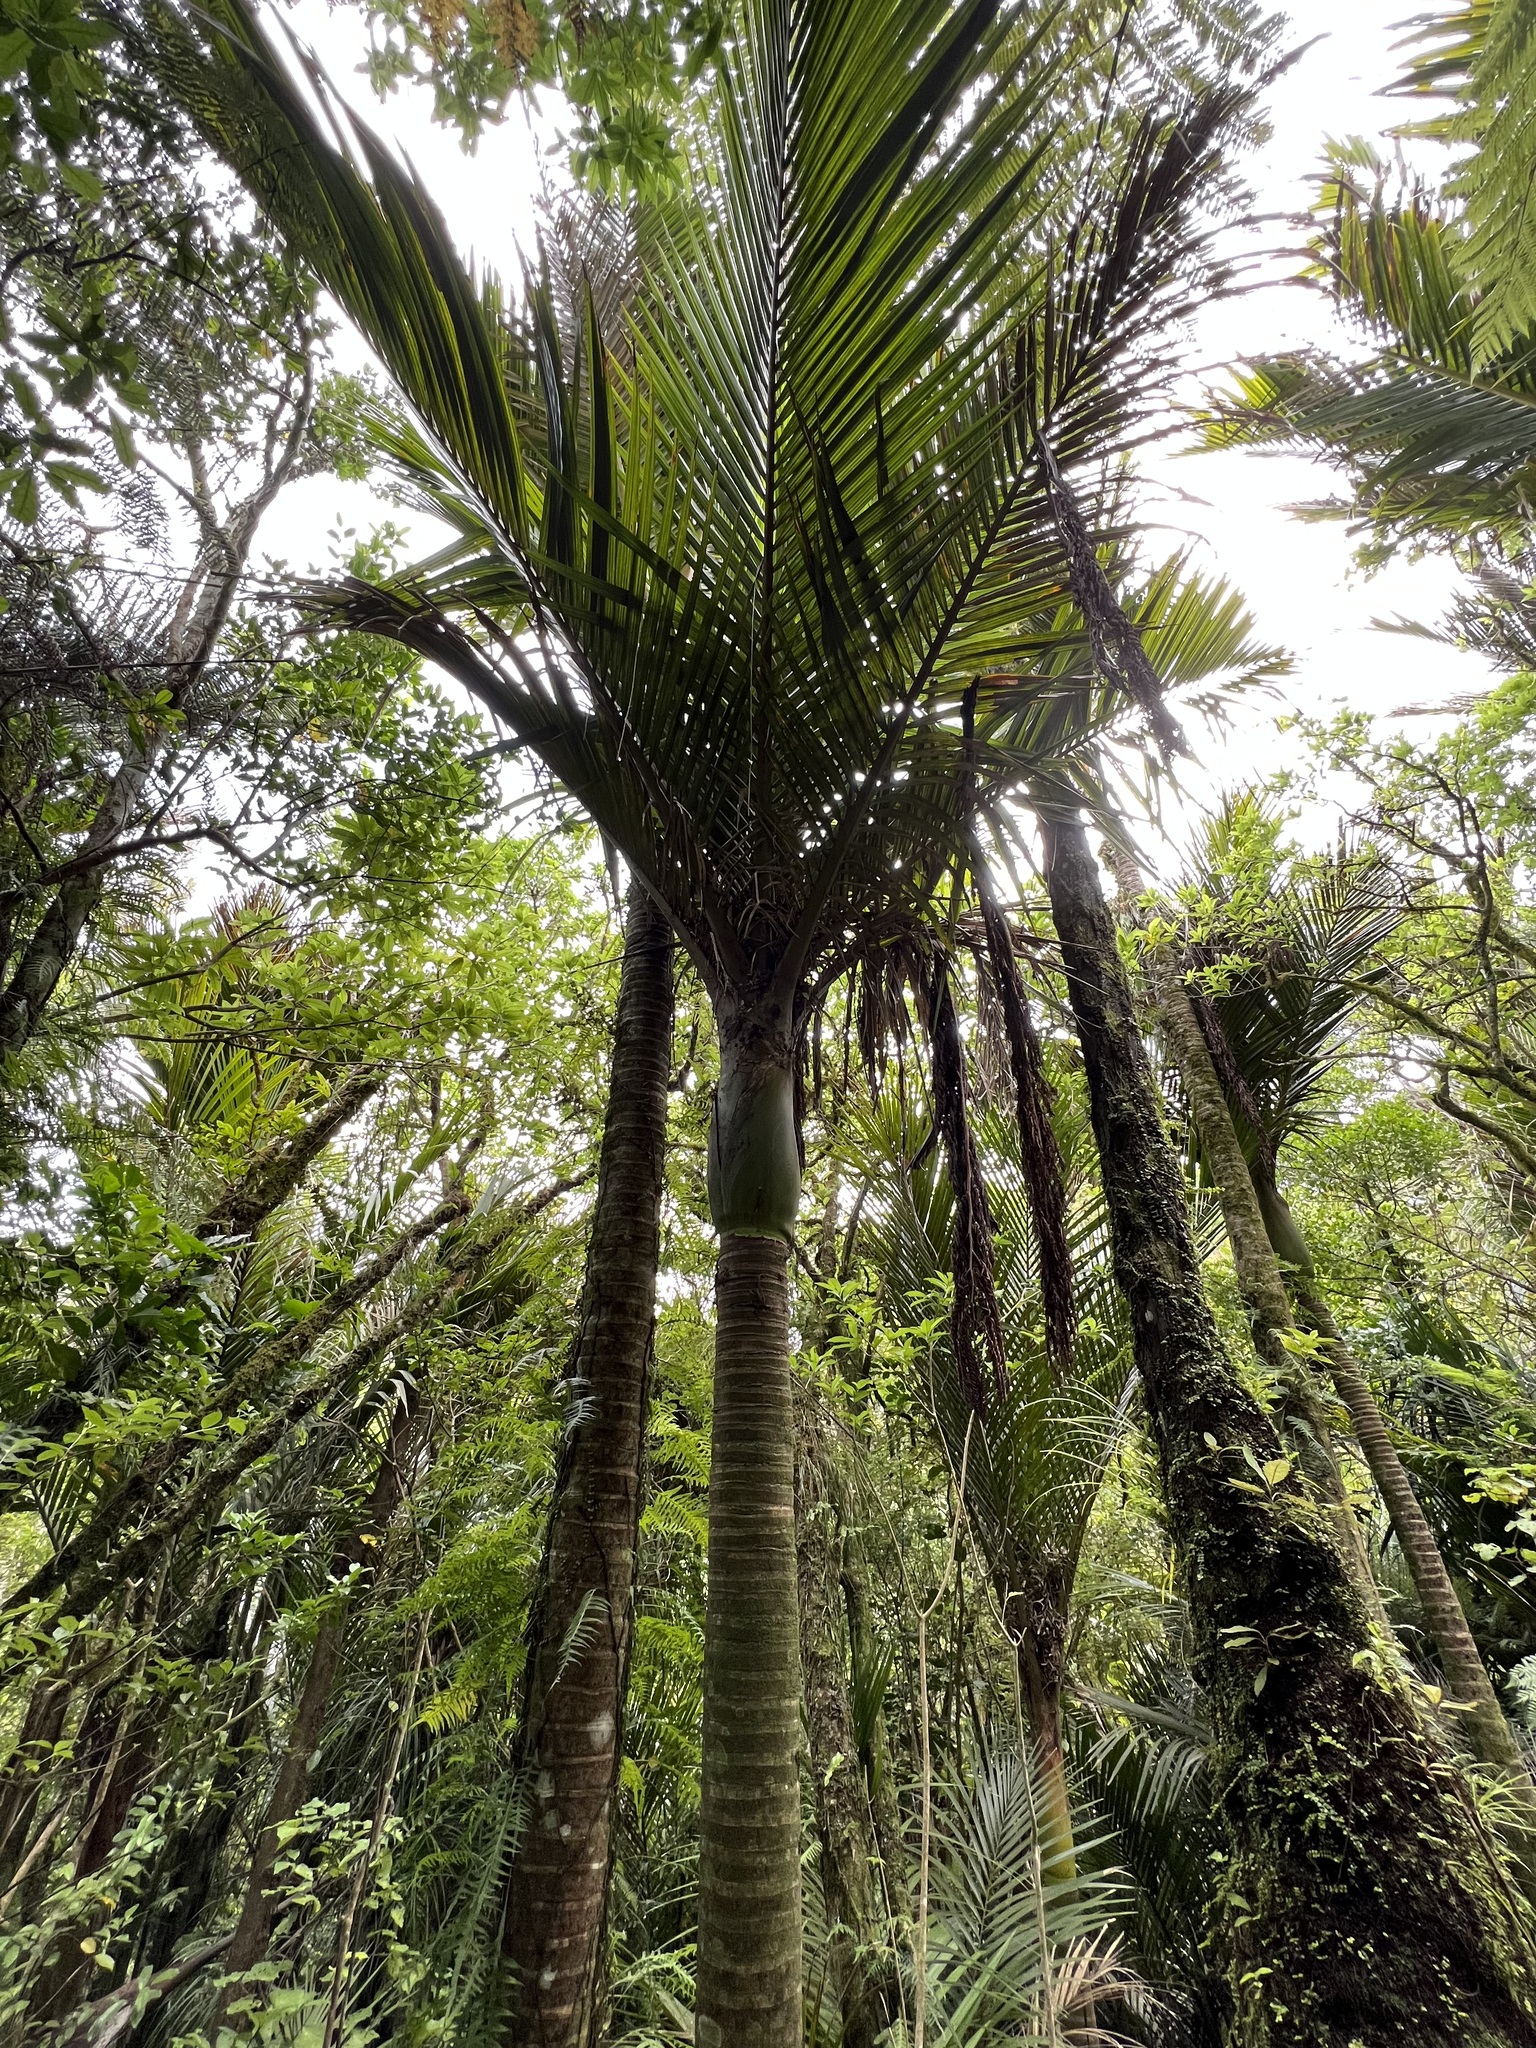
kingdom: Plantae
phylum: Tracheophyta
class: Liliopsida
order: Arecales
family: Arecaceae
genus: Rhopalostylis
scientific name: Rhopalostylis sapida
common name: Feather-duster palm
